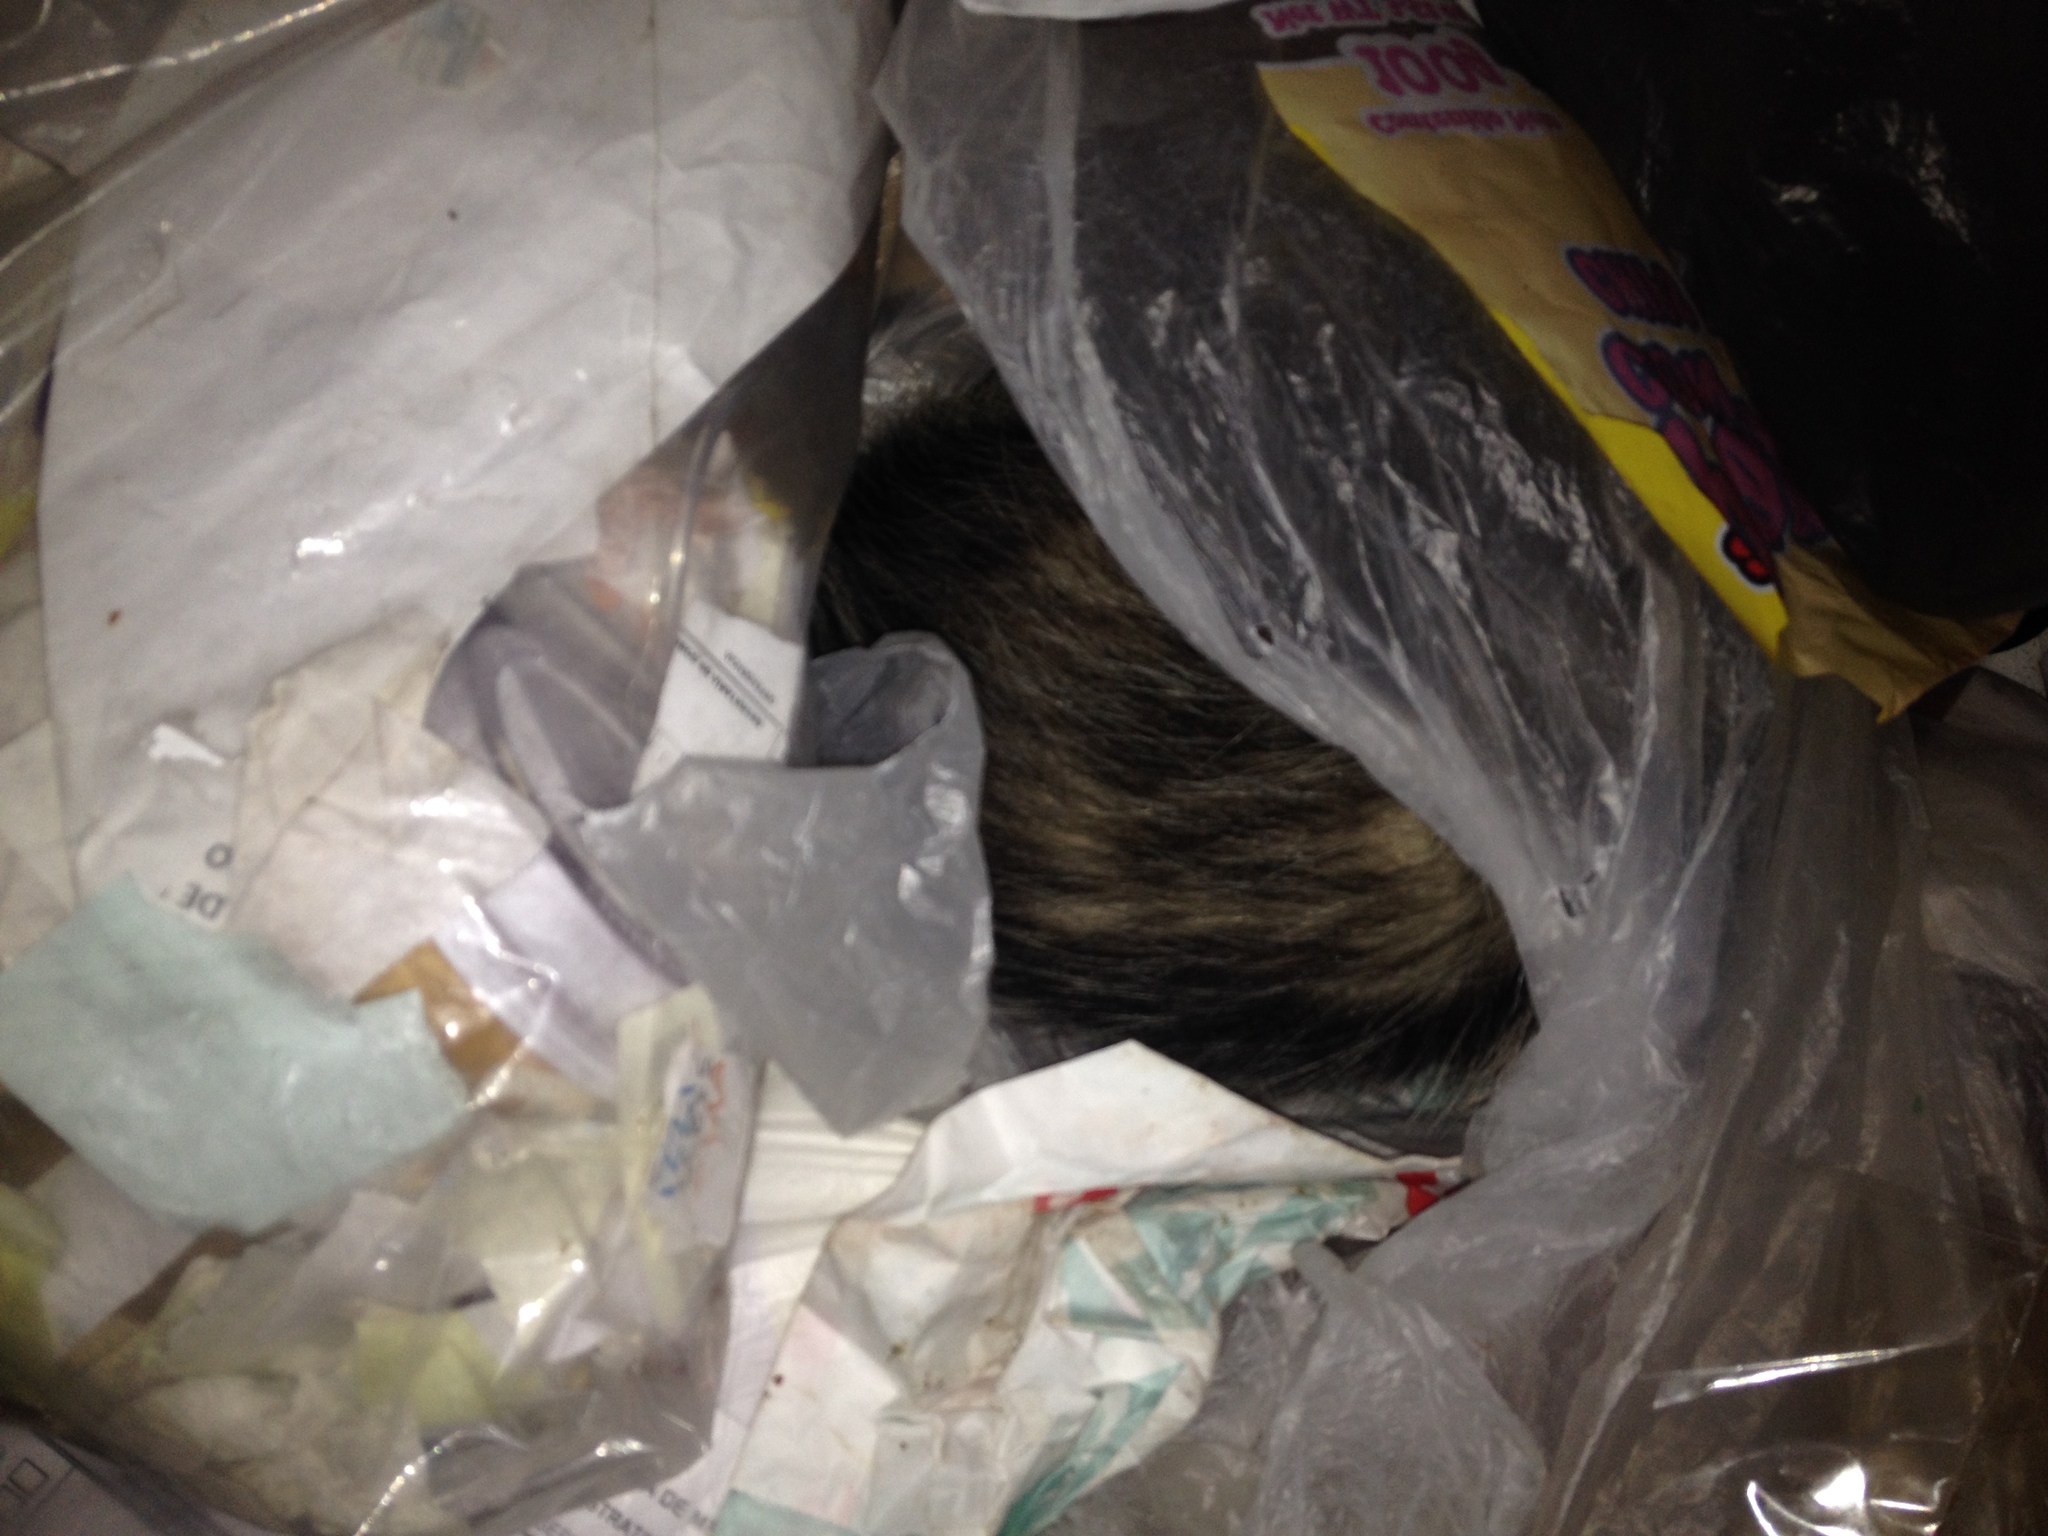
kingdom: Animalia
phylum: Chordata
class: Mammalia
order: Didelphimorphia
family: Didelphidae
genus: Didelphis
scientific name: Didelphis virginiana
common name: Virginia opossum
